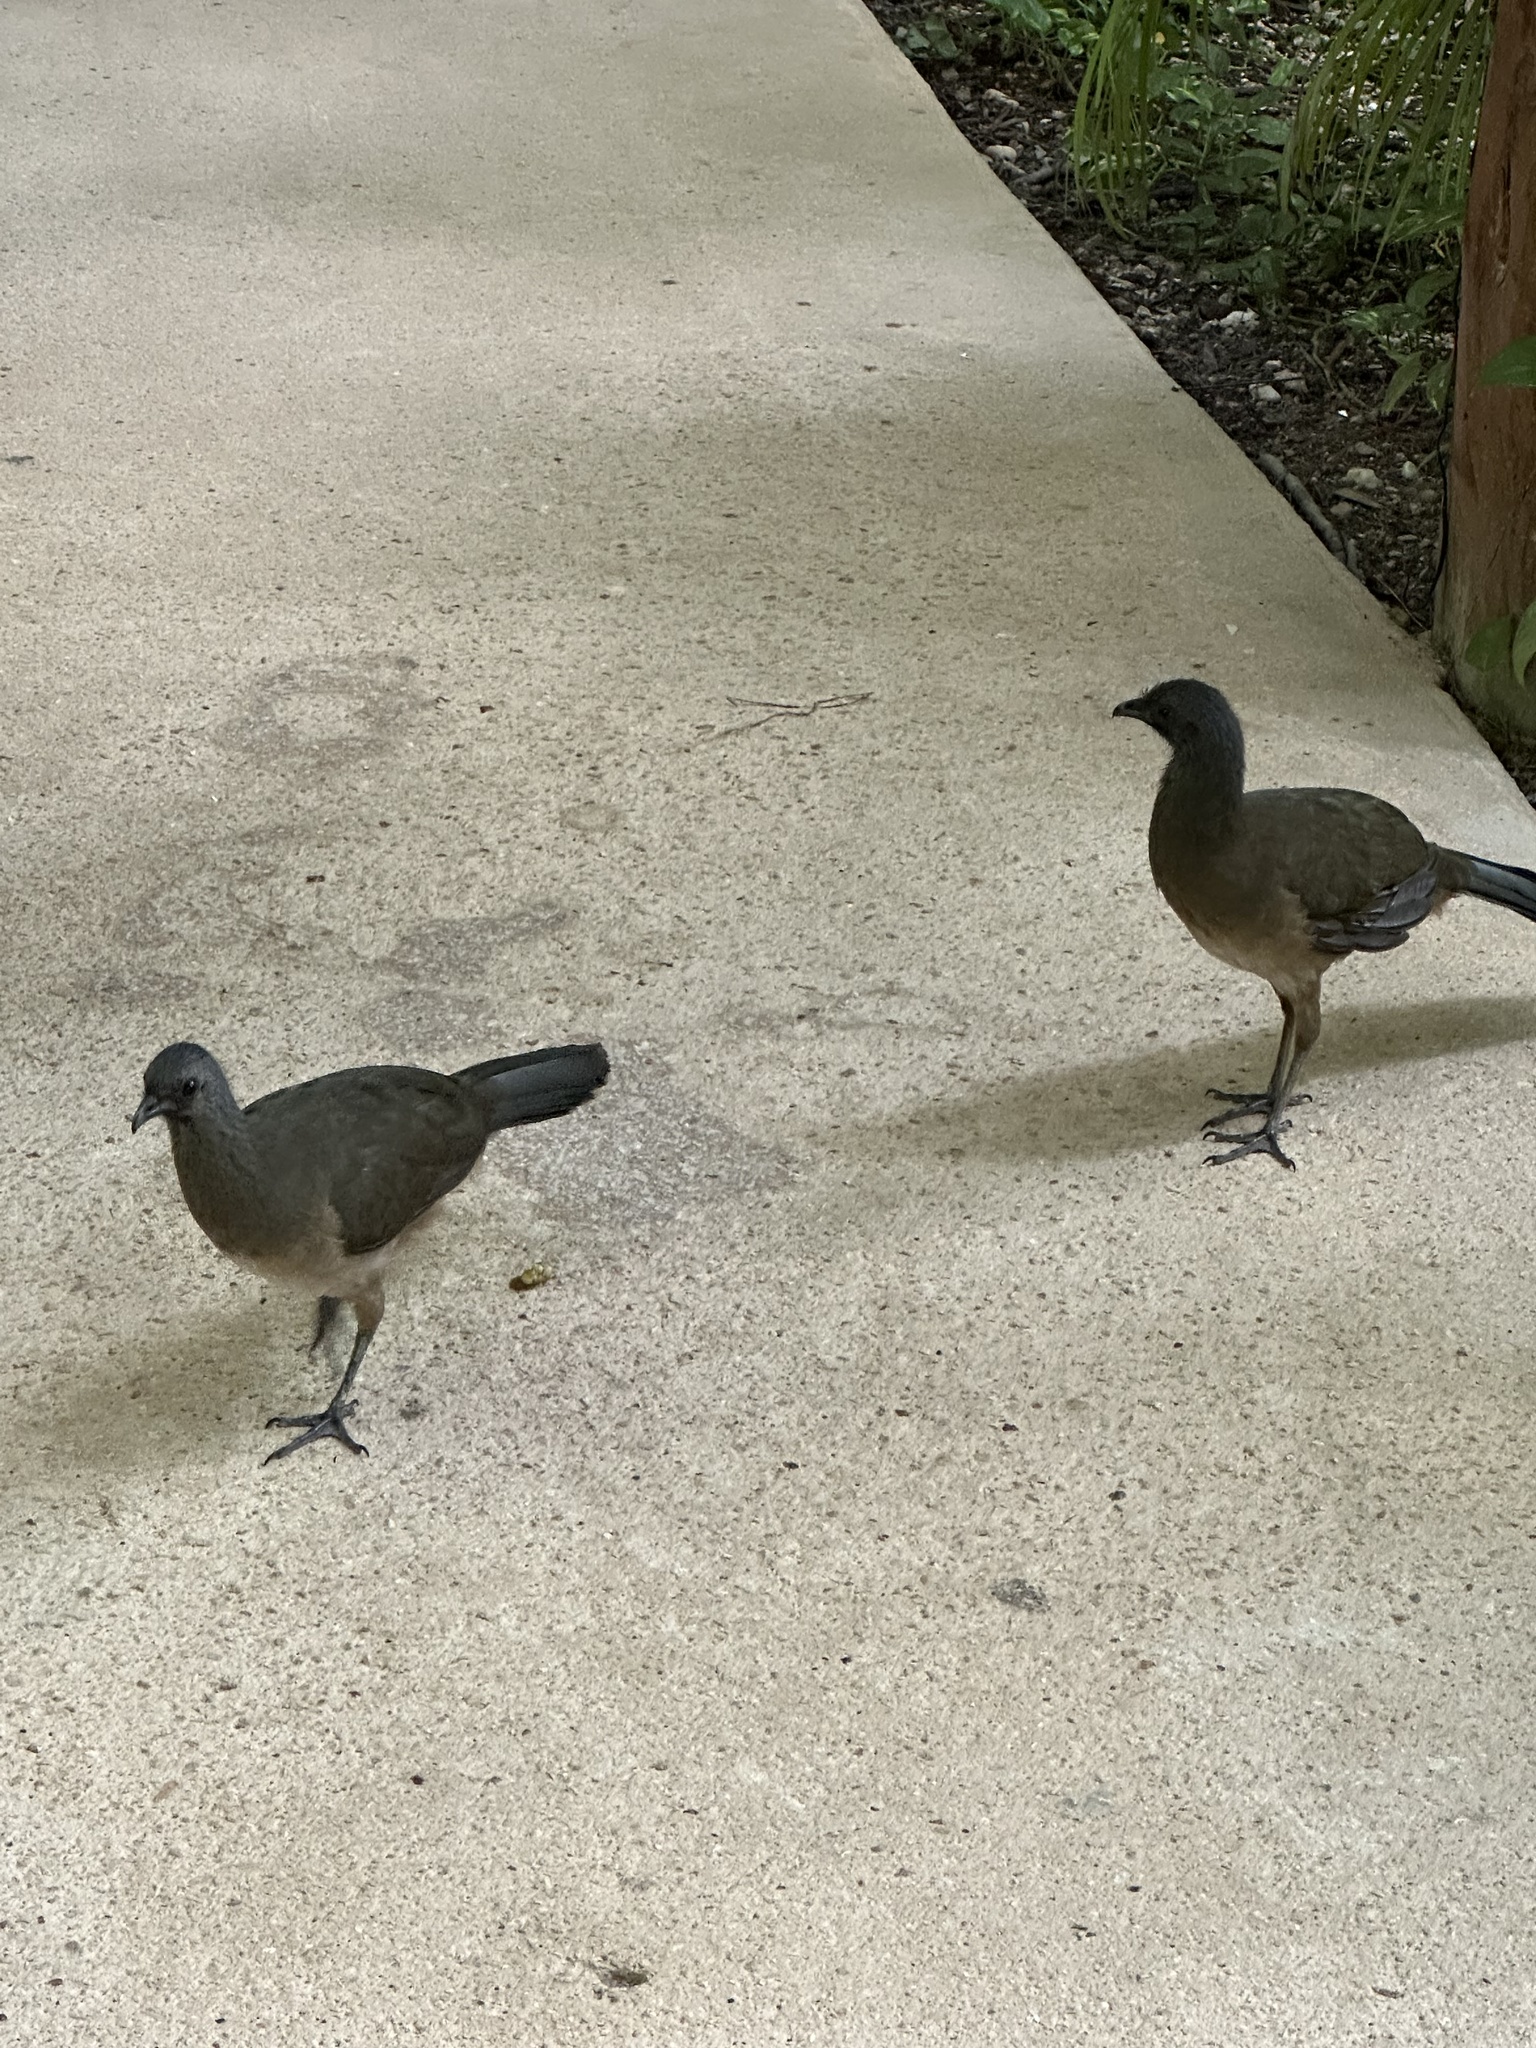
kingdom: Animalia
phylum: Chordata
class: Aves
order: Galliformes
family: Cracidae
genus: Ortalis
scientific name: Ortalis vetula
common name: Plain chachalaca
